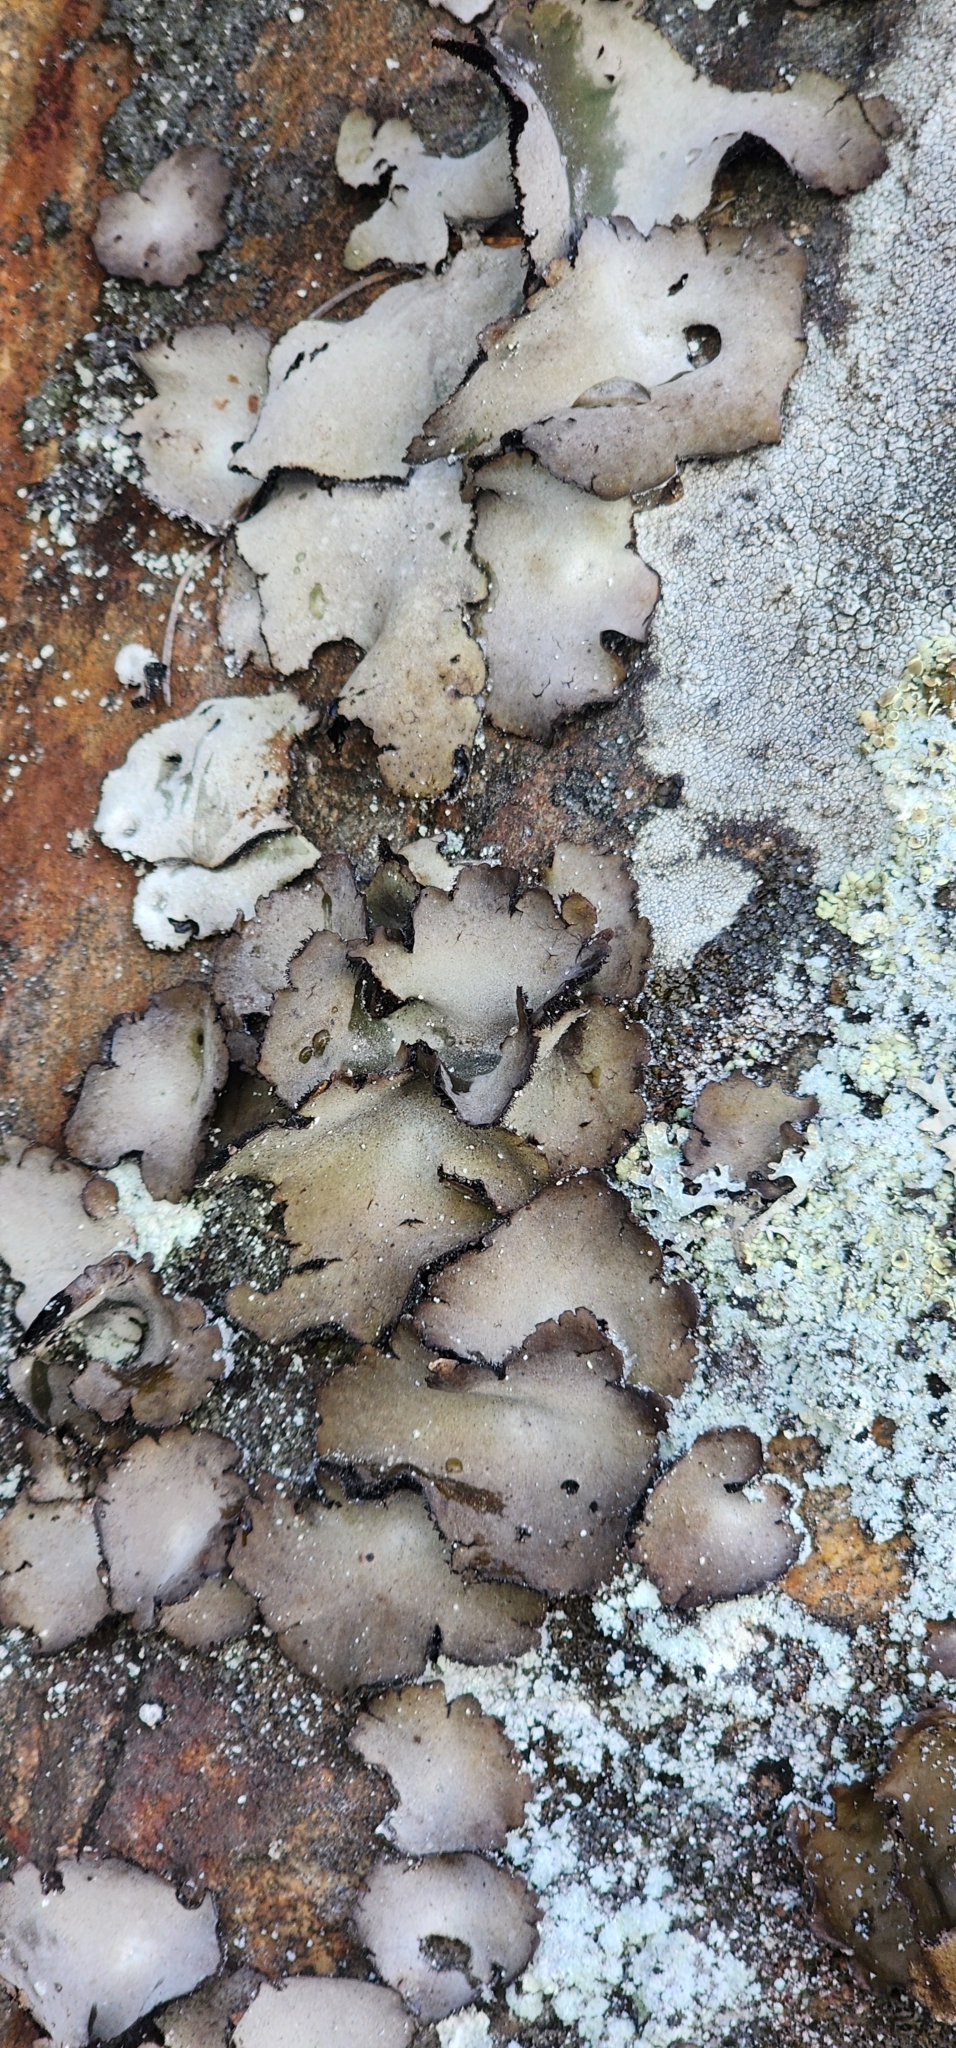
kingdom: Fungi
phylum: Ascomycota
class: Lecanoromycetes
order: Umbilicariales
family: Umbilicariaceae
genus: Umbilicaria
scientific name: Umbilicaria americana
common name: Frosted rock tripe
